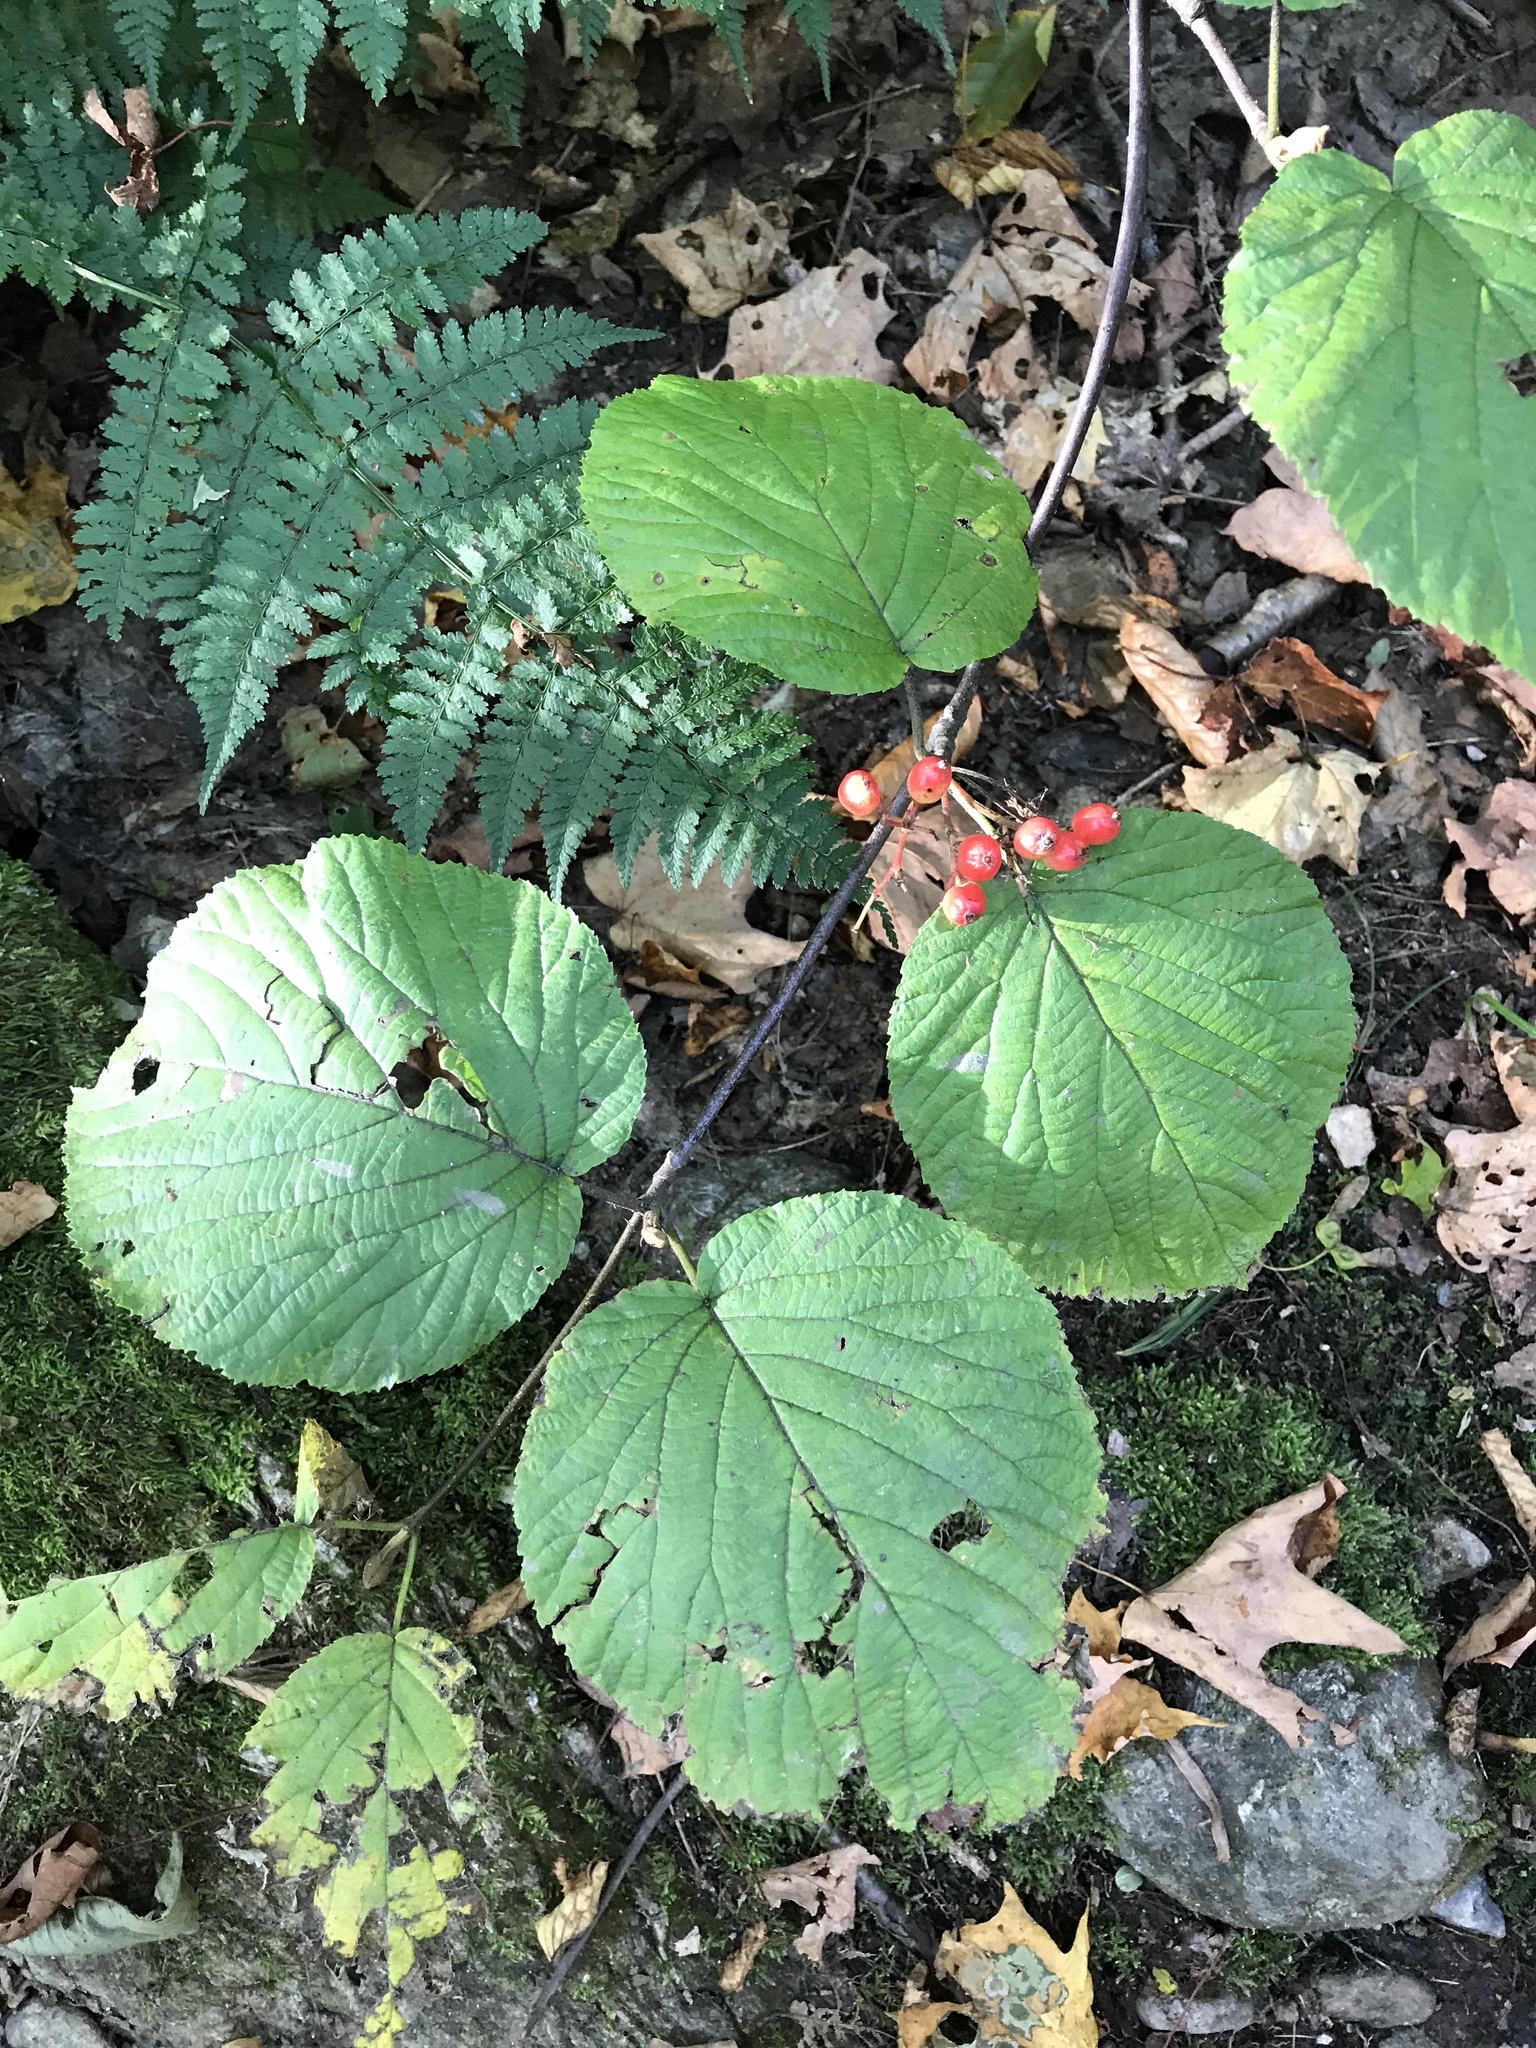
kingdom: Plantae
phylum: Tracheophyta
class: Magnoliopsida
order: Dipsacales
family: Viburnaceae
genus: Viburnum
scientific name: Viburnum lantanoides
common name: Hobblebush
